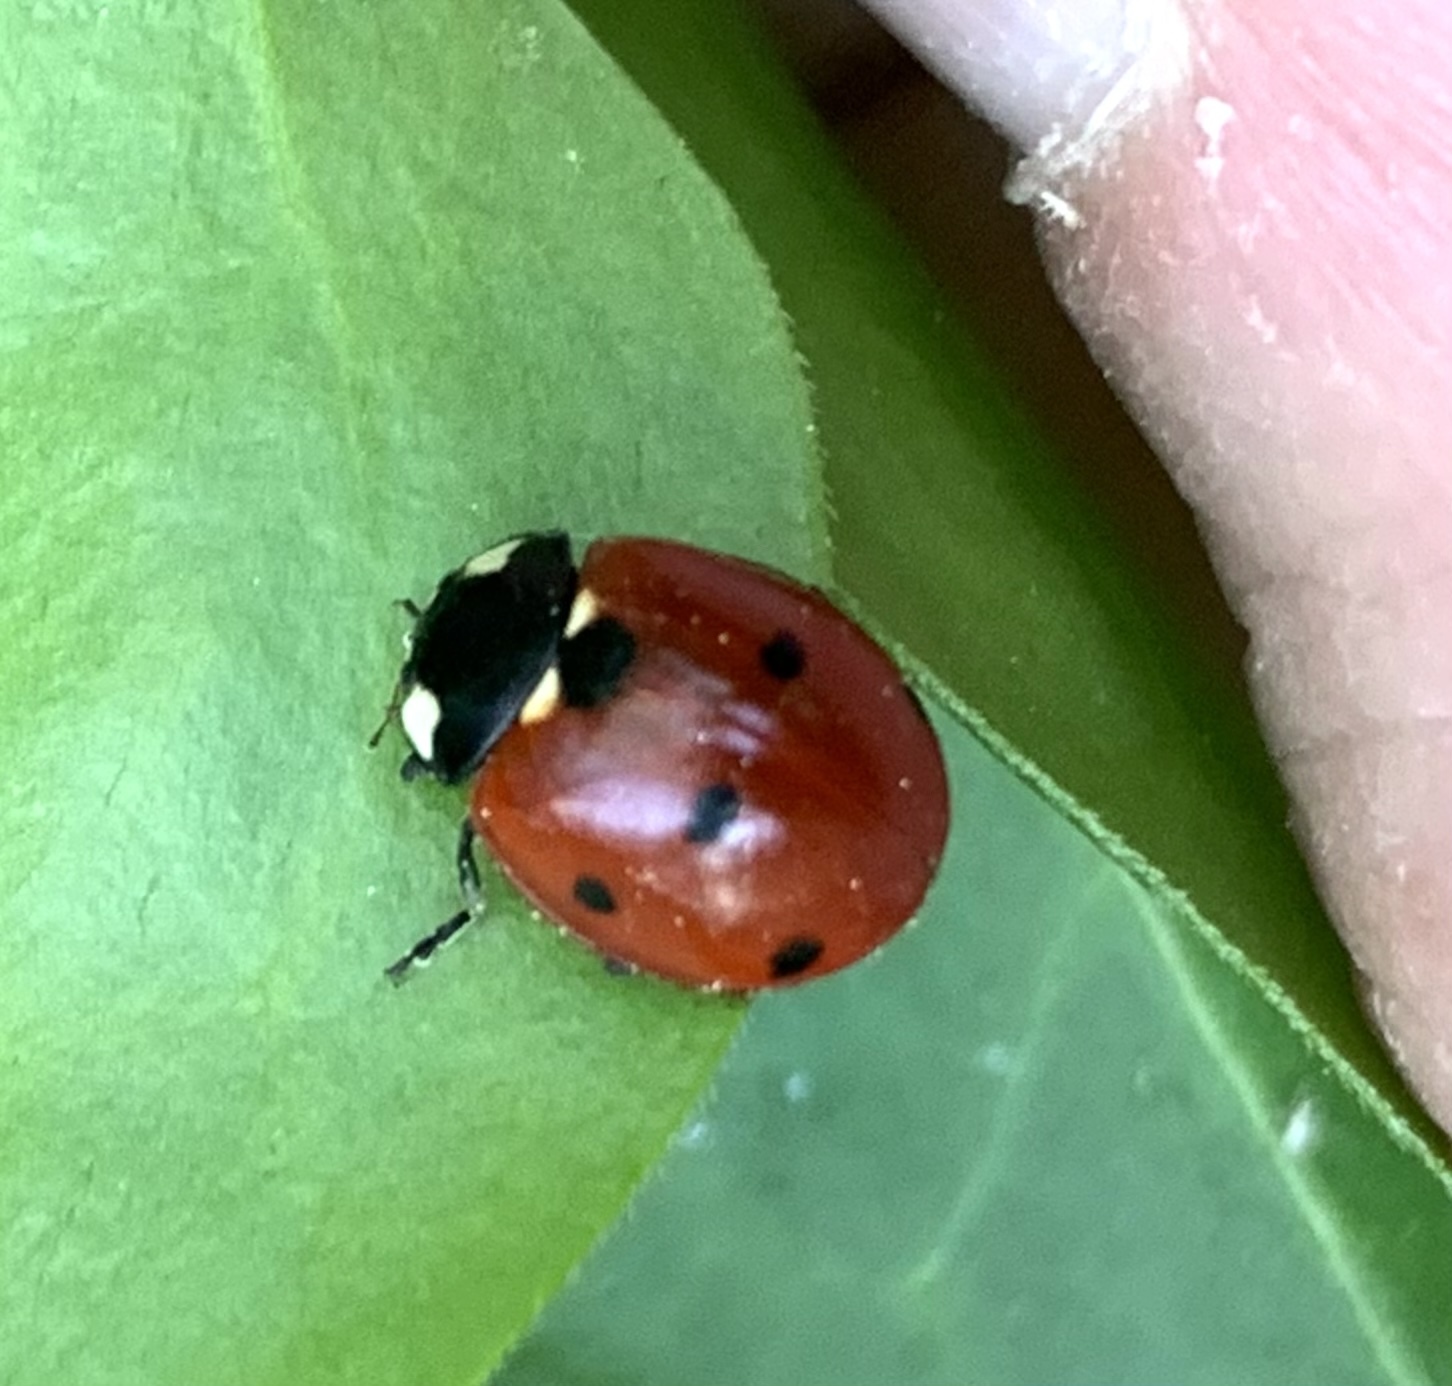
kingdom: Animalia
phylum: Arthropoda
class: Insecta
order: Coleoptera
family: Coccinellidae
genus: Coccinella
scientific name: Coccinella septempunctata
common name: Sevenspotted lady beetle
